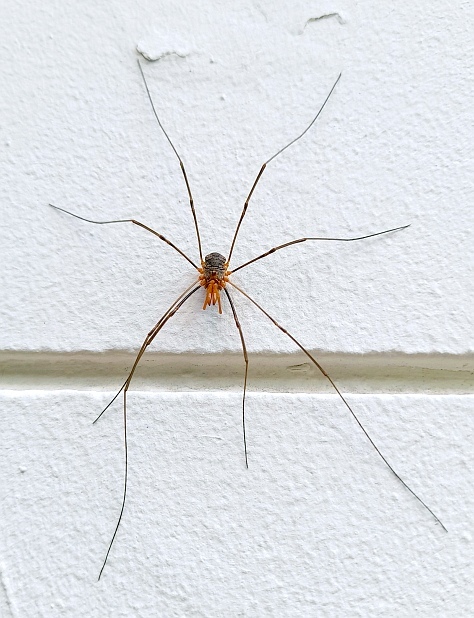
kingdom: Animalia
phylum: Arthropoda
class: Arachnida
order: Opiliones
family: Phalangiidae
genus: Phalangium
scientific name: Phalangium opilio
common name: Daddy longleg
